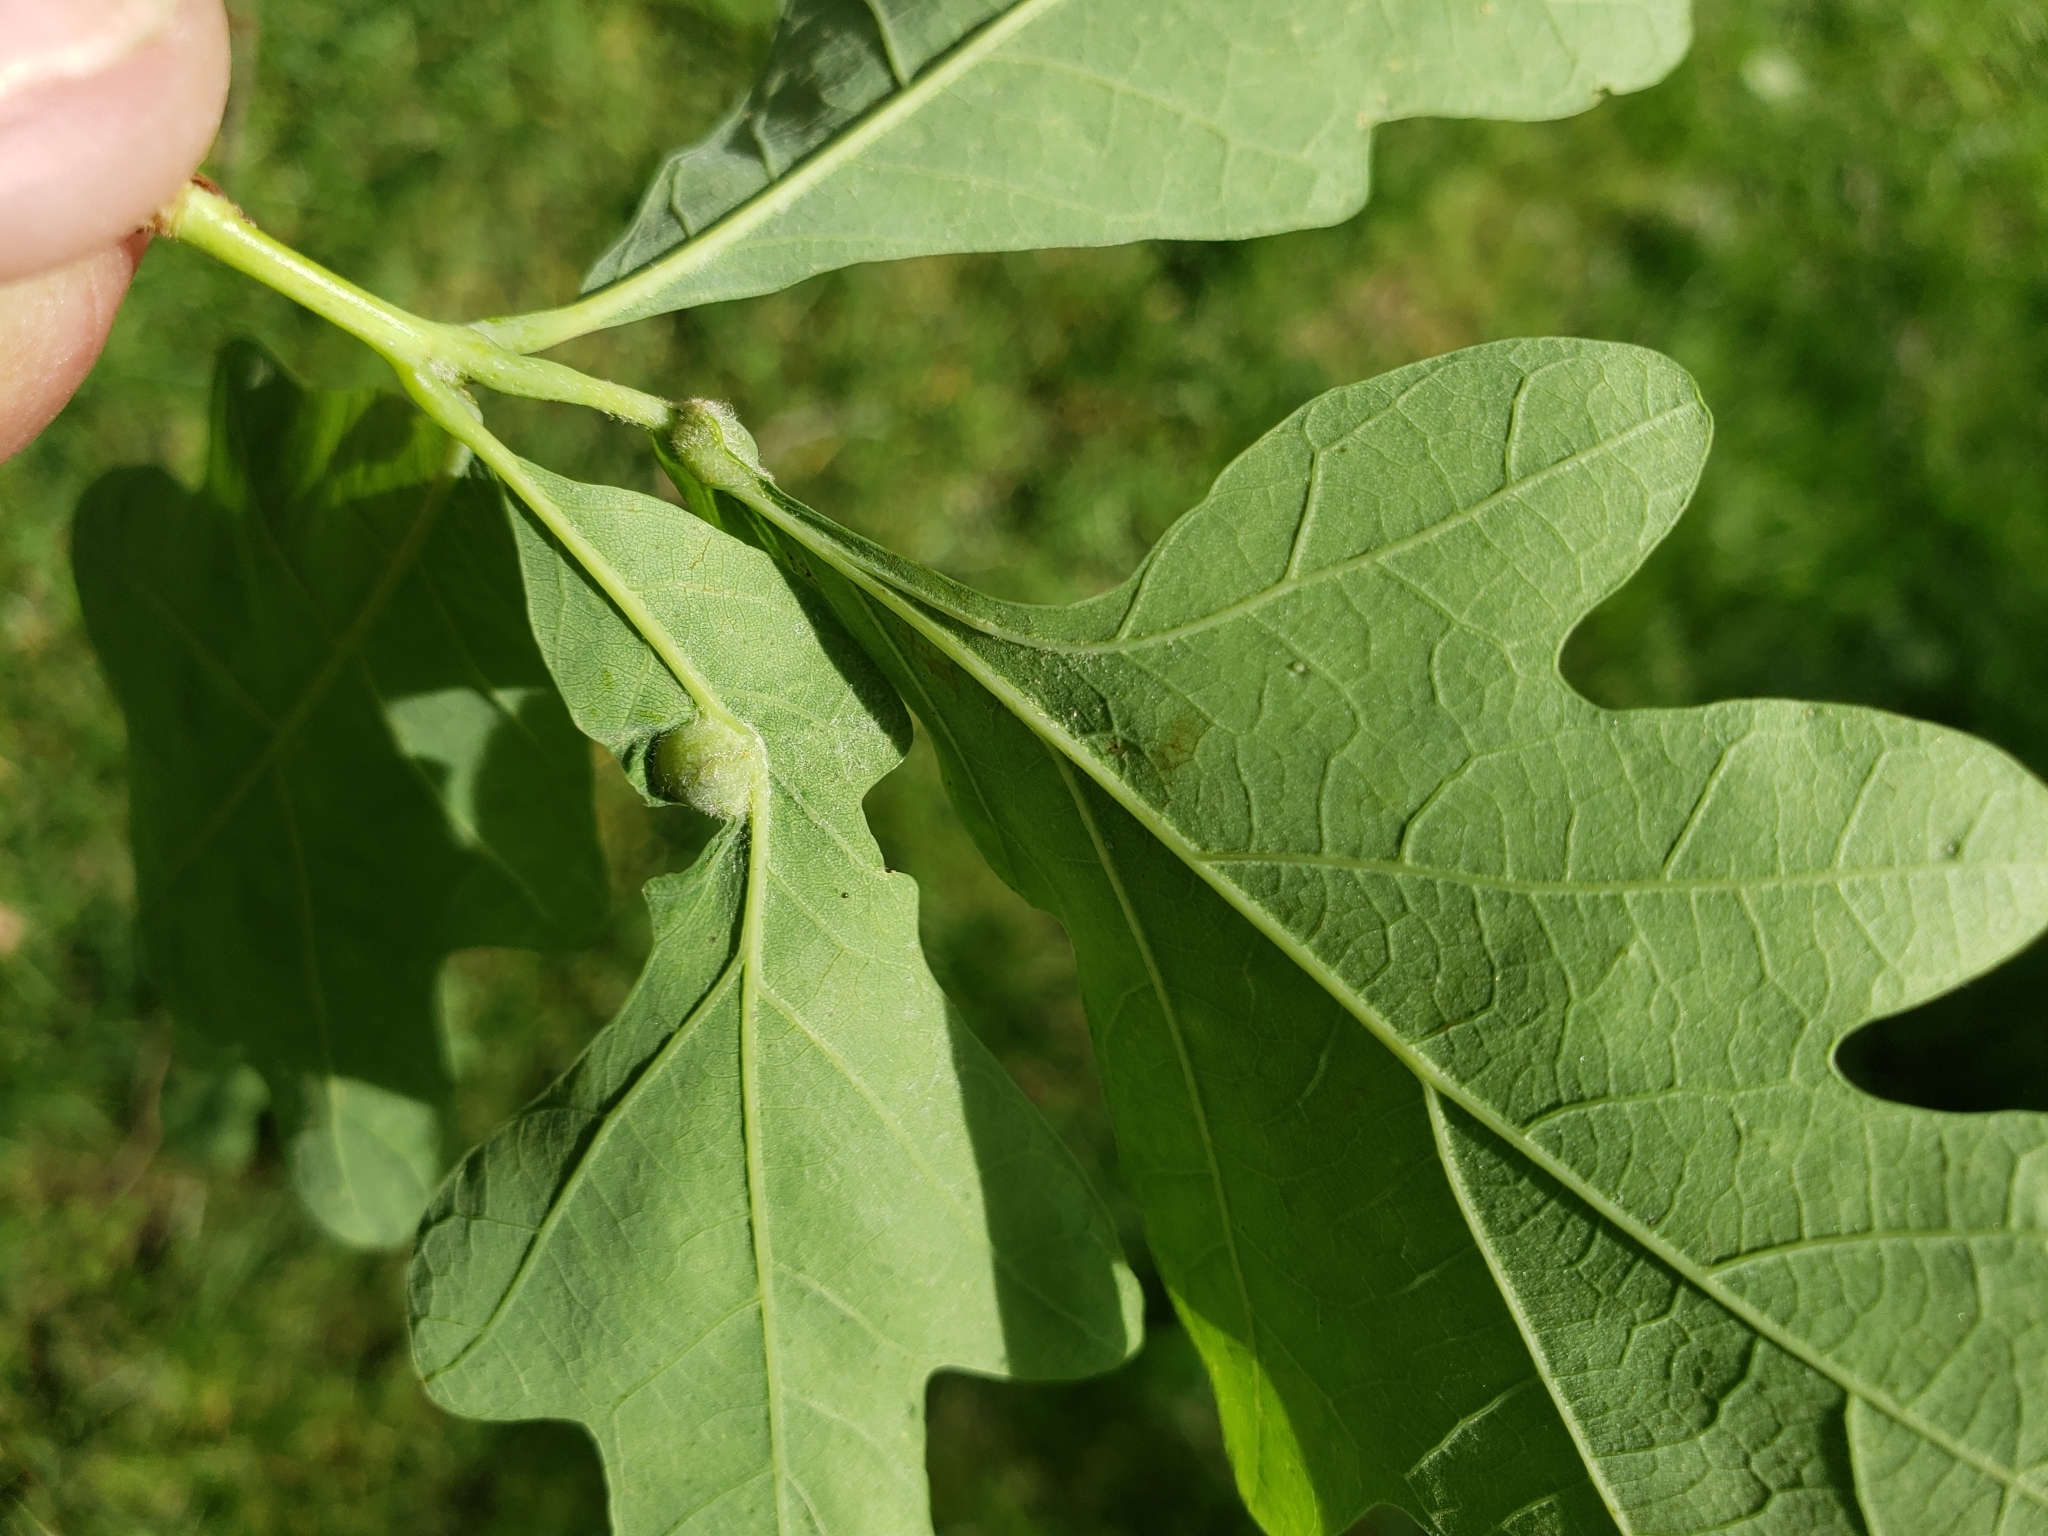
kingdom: Animalia
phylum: Arthropoda
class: Insecta
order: Hymenoptera
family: Cynipidae
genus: Andricus
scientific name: Andricus
